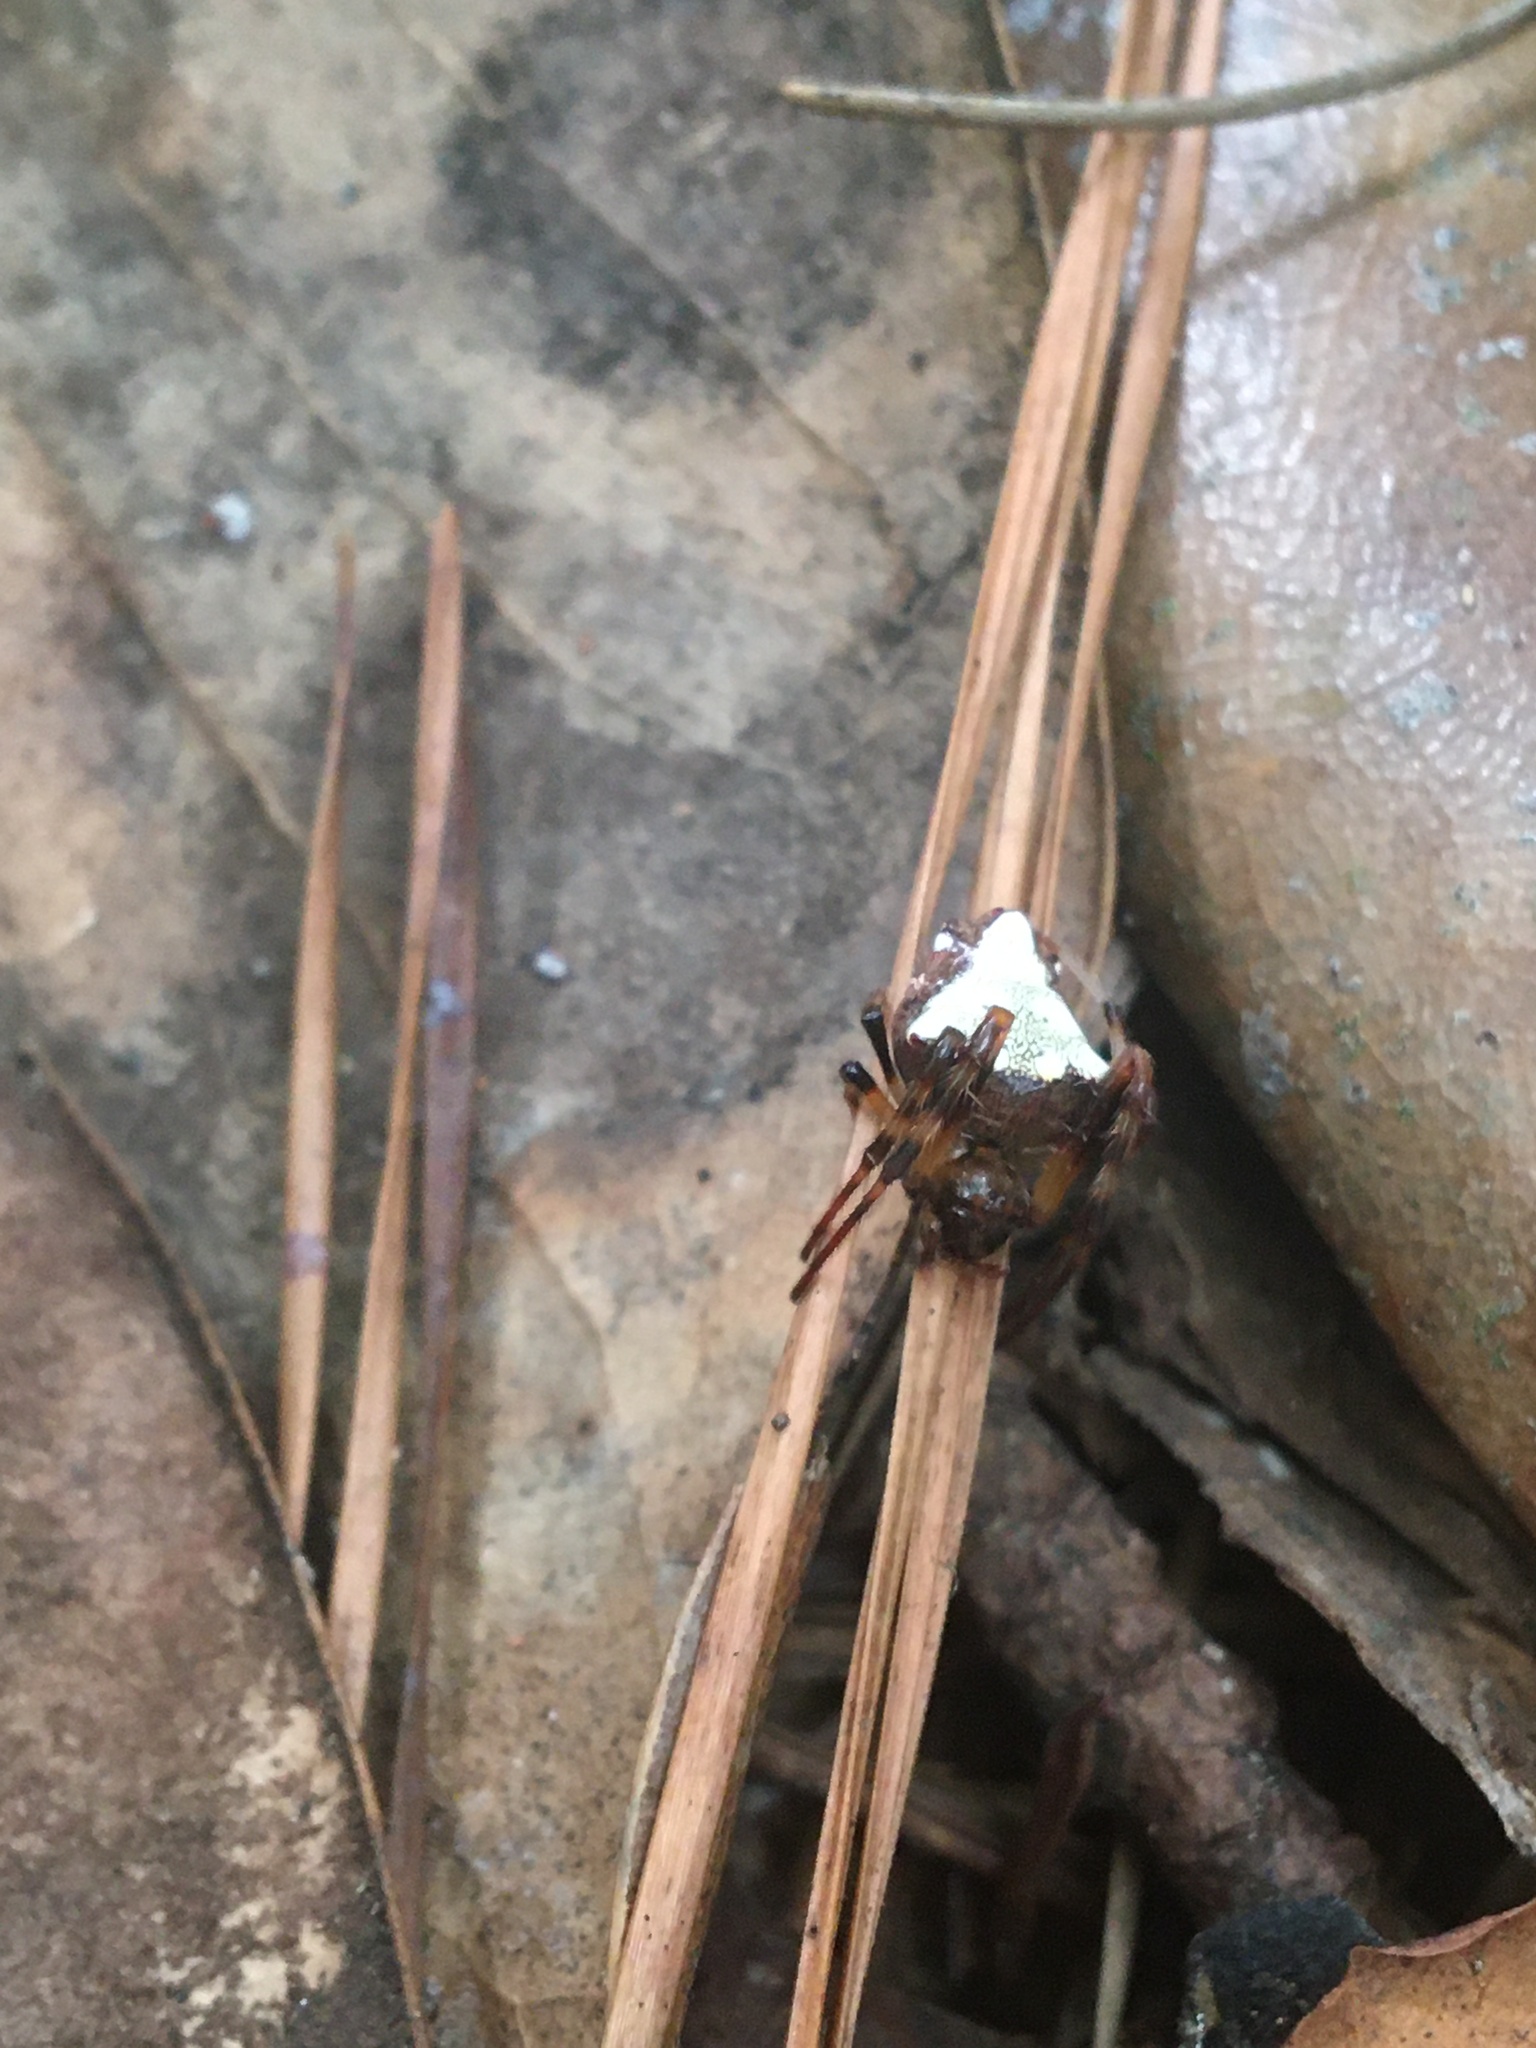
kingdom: Animalia
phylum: Arthropoda
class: Arachnida
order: Araneae
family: Araneidae
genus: Verrucosa
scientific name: Verrucosa arenata
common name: Orb weavers
